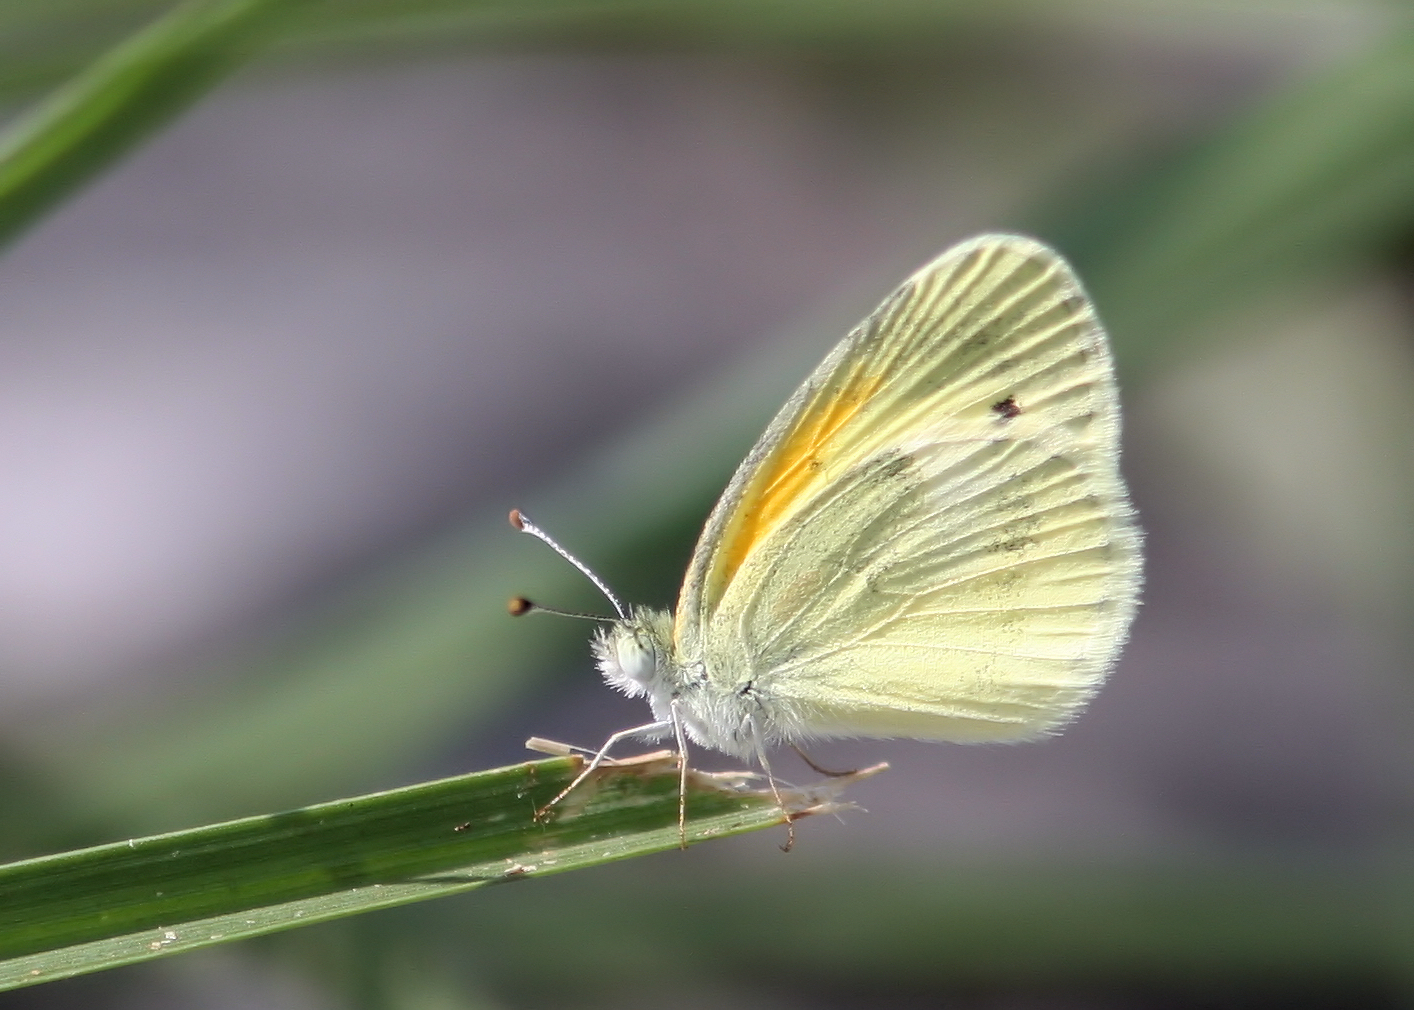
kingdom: Animalia
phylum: Arthropoda
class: Insecta
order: Lepidoptera
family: Pieridae
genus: Nathalis
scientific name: Nathalis iole
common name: Dainty sulphur
